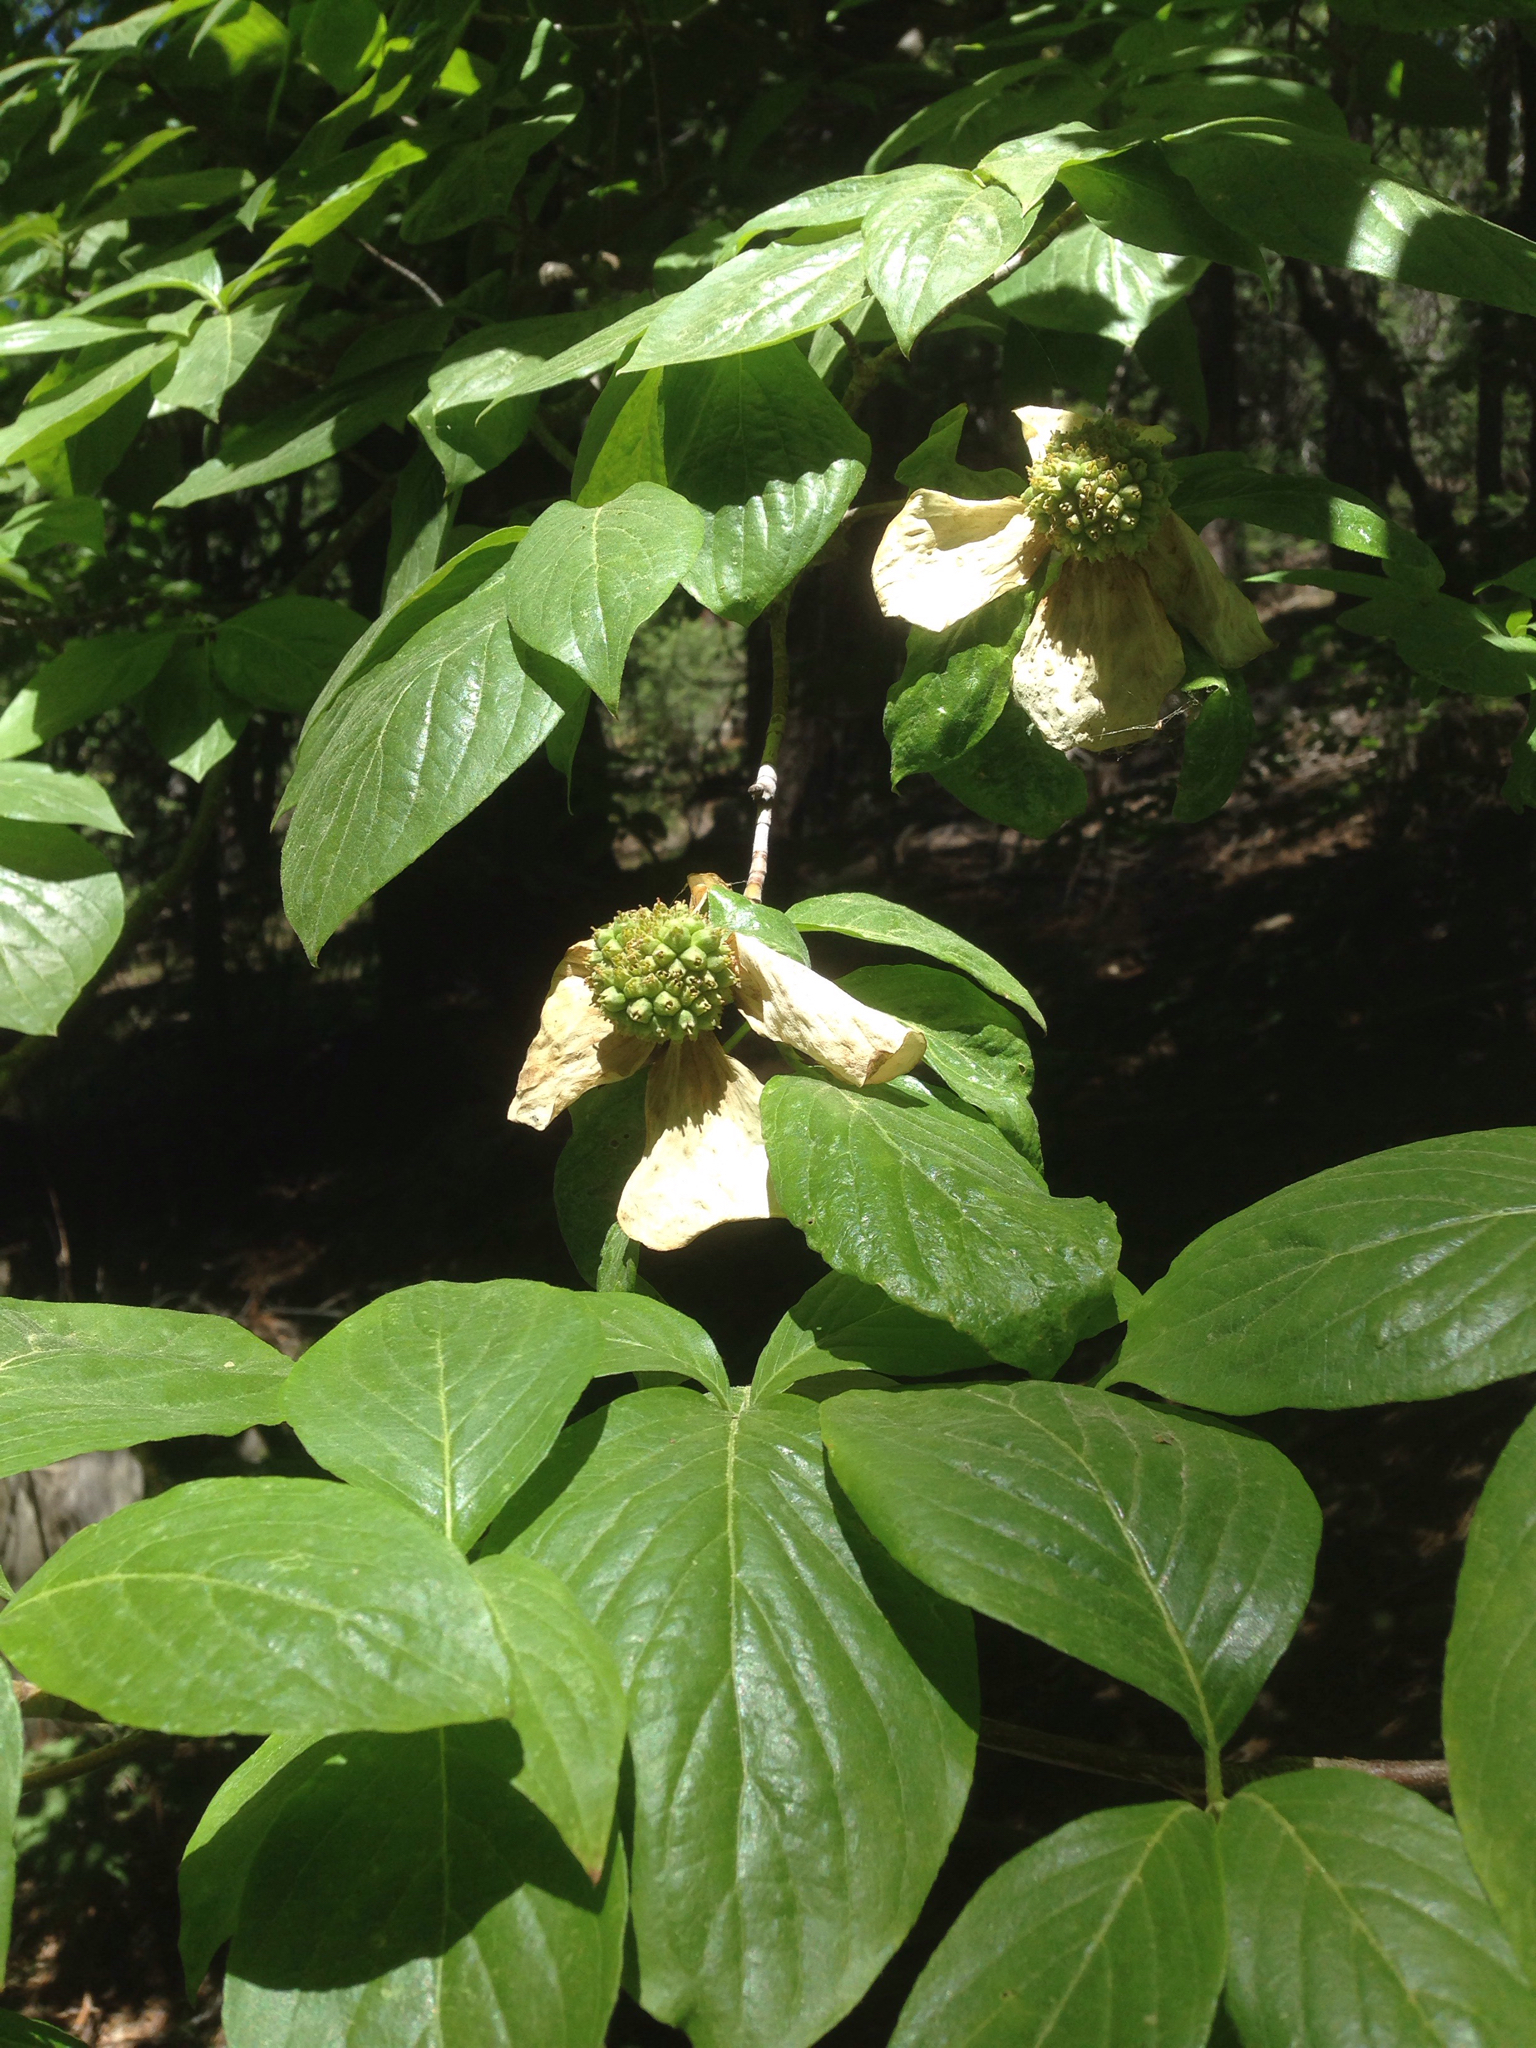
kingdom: Plantae
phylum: Tracheophyta
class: Magnoliopsida
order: Cornales
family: Cornaceae
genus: Cornus
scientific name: Cornus nuttallii
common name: Pacific dogwood
